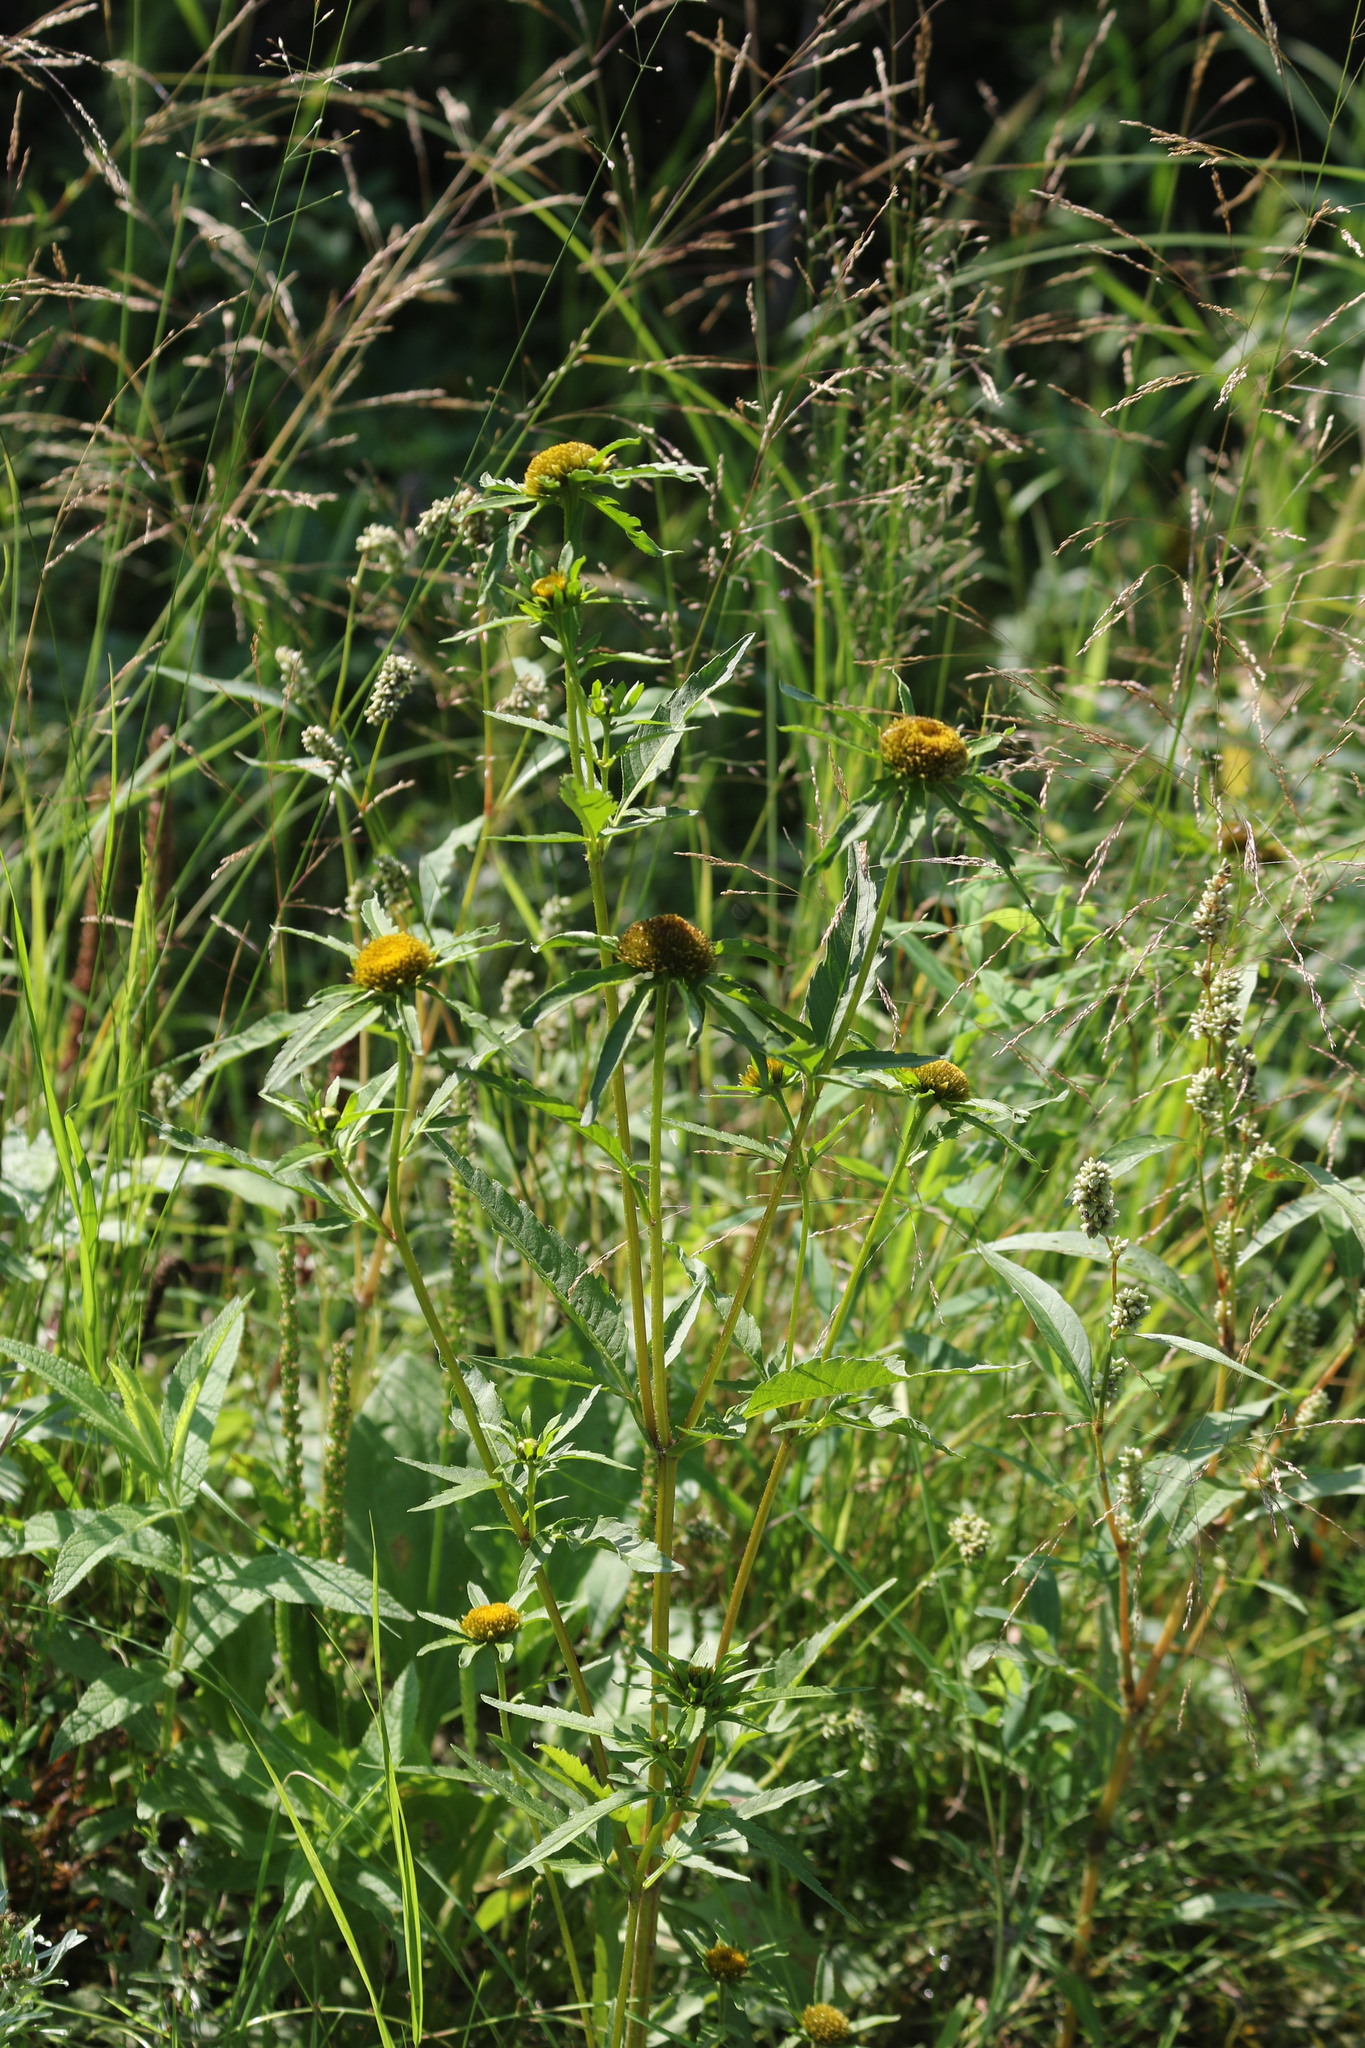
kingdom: Plantae
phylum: Tracheophyta
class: Magnoliopsida
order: Asterales
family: Asteraceae
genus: Bidens
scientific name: Bidens radiata
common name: Radiating bur-marigold
